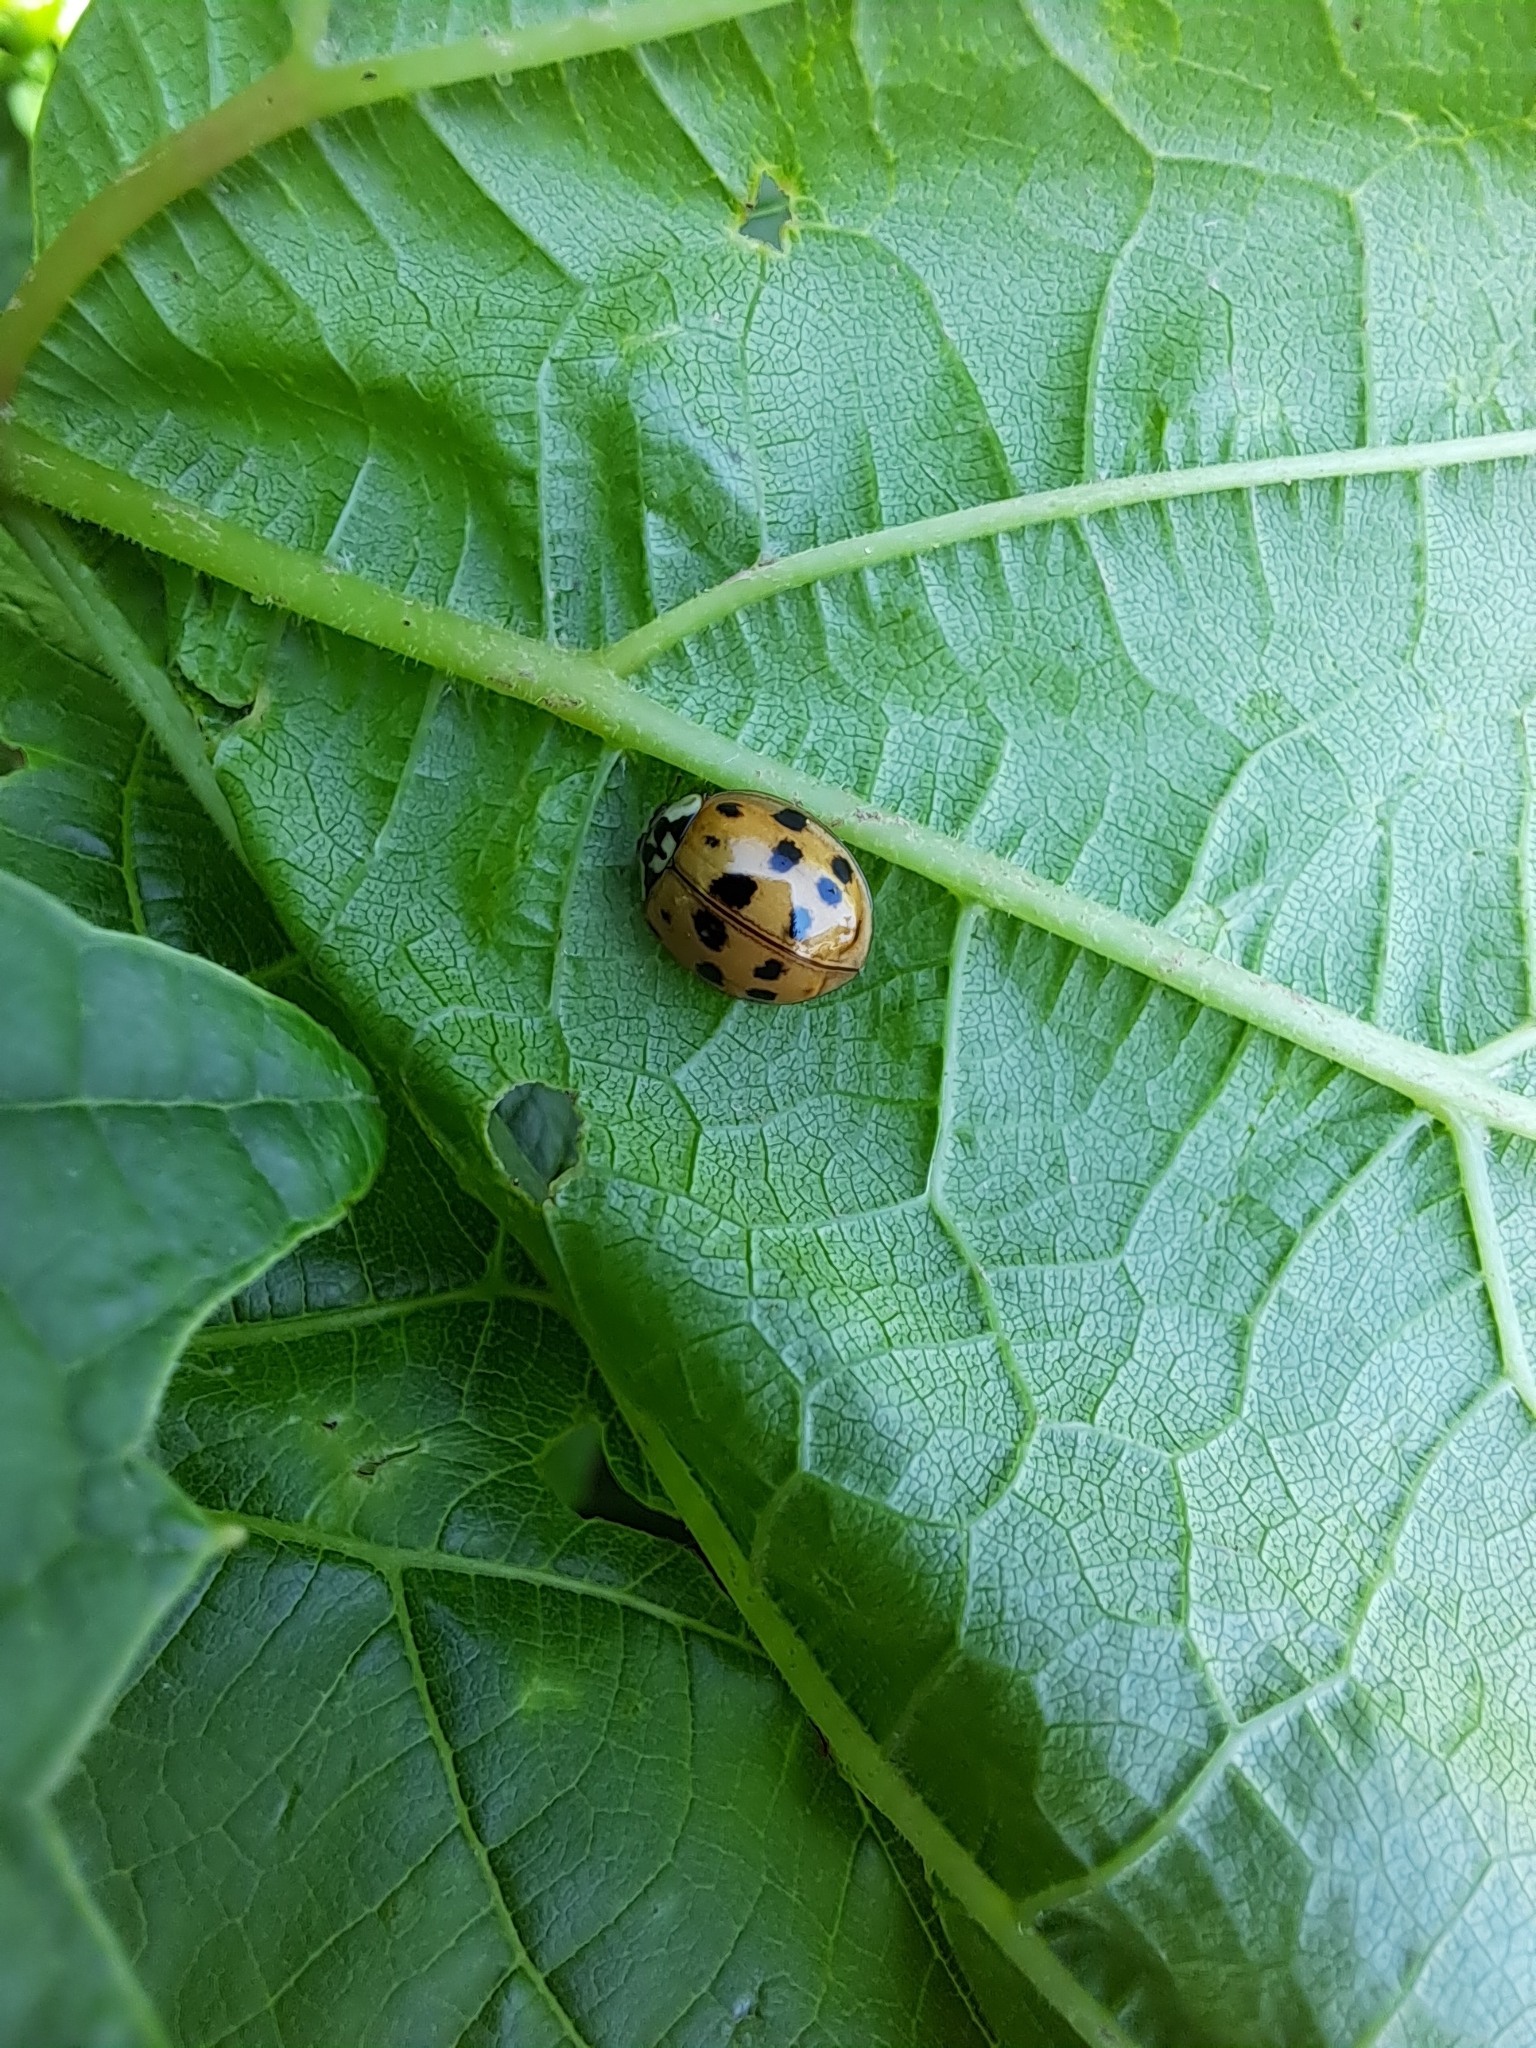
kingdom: Animalia
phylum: Arthropoda
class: Insecta
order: Coleoptera
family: Coccinellidae
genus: Harmonia
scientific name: Harmonia axyridis
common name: Harlequin ladybird
